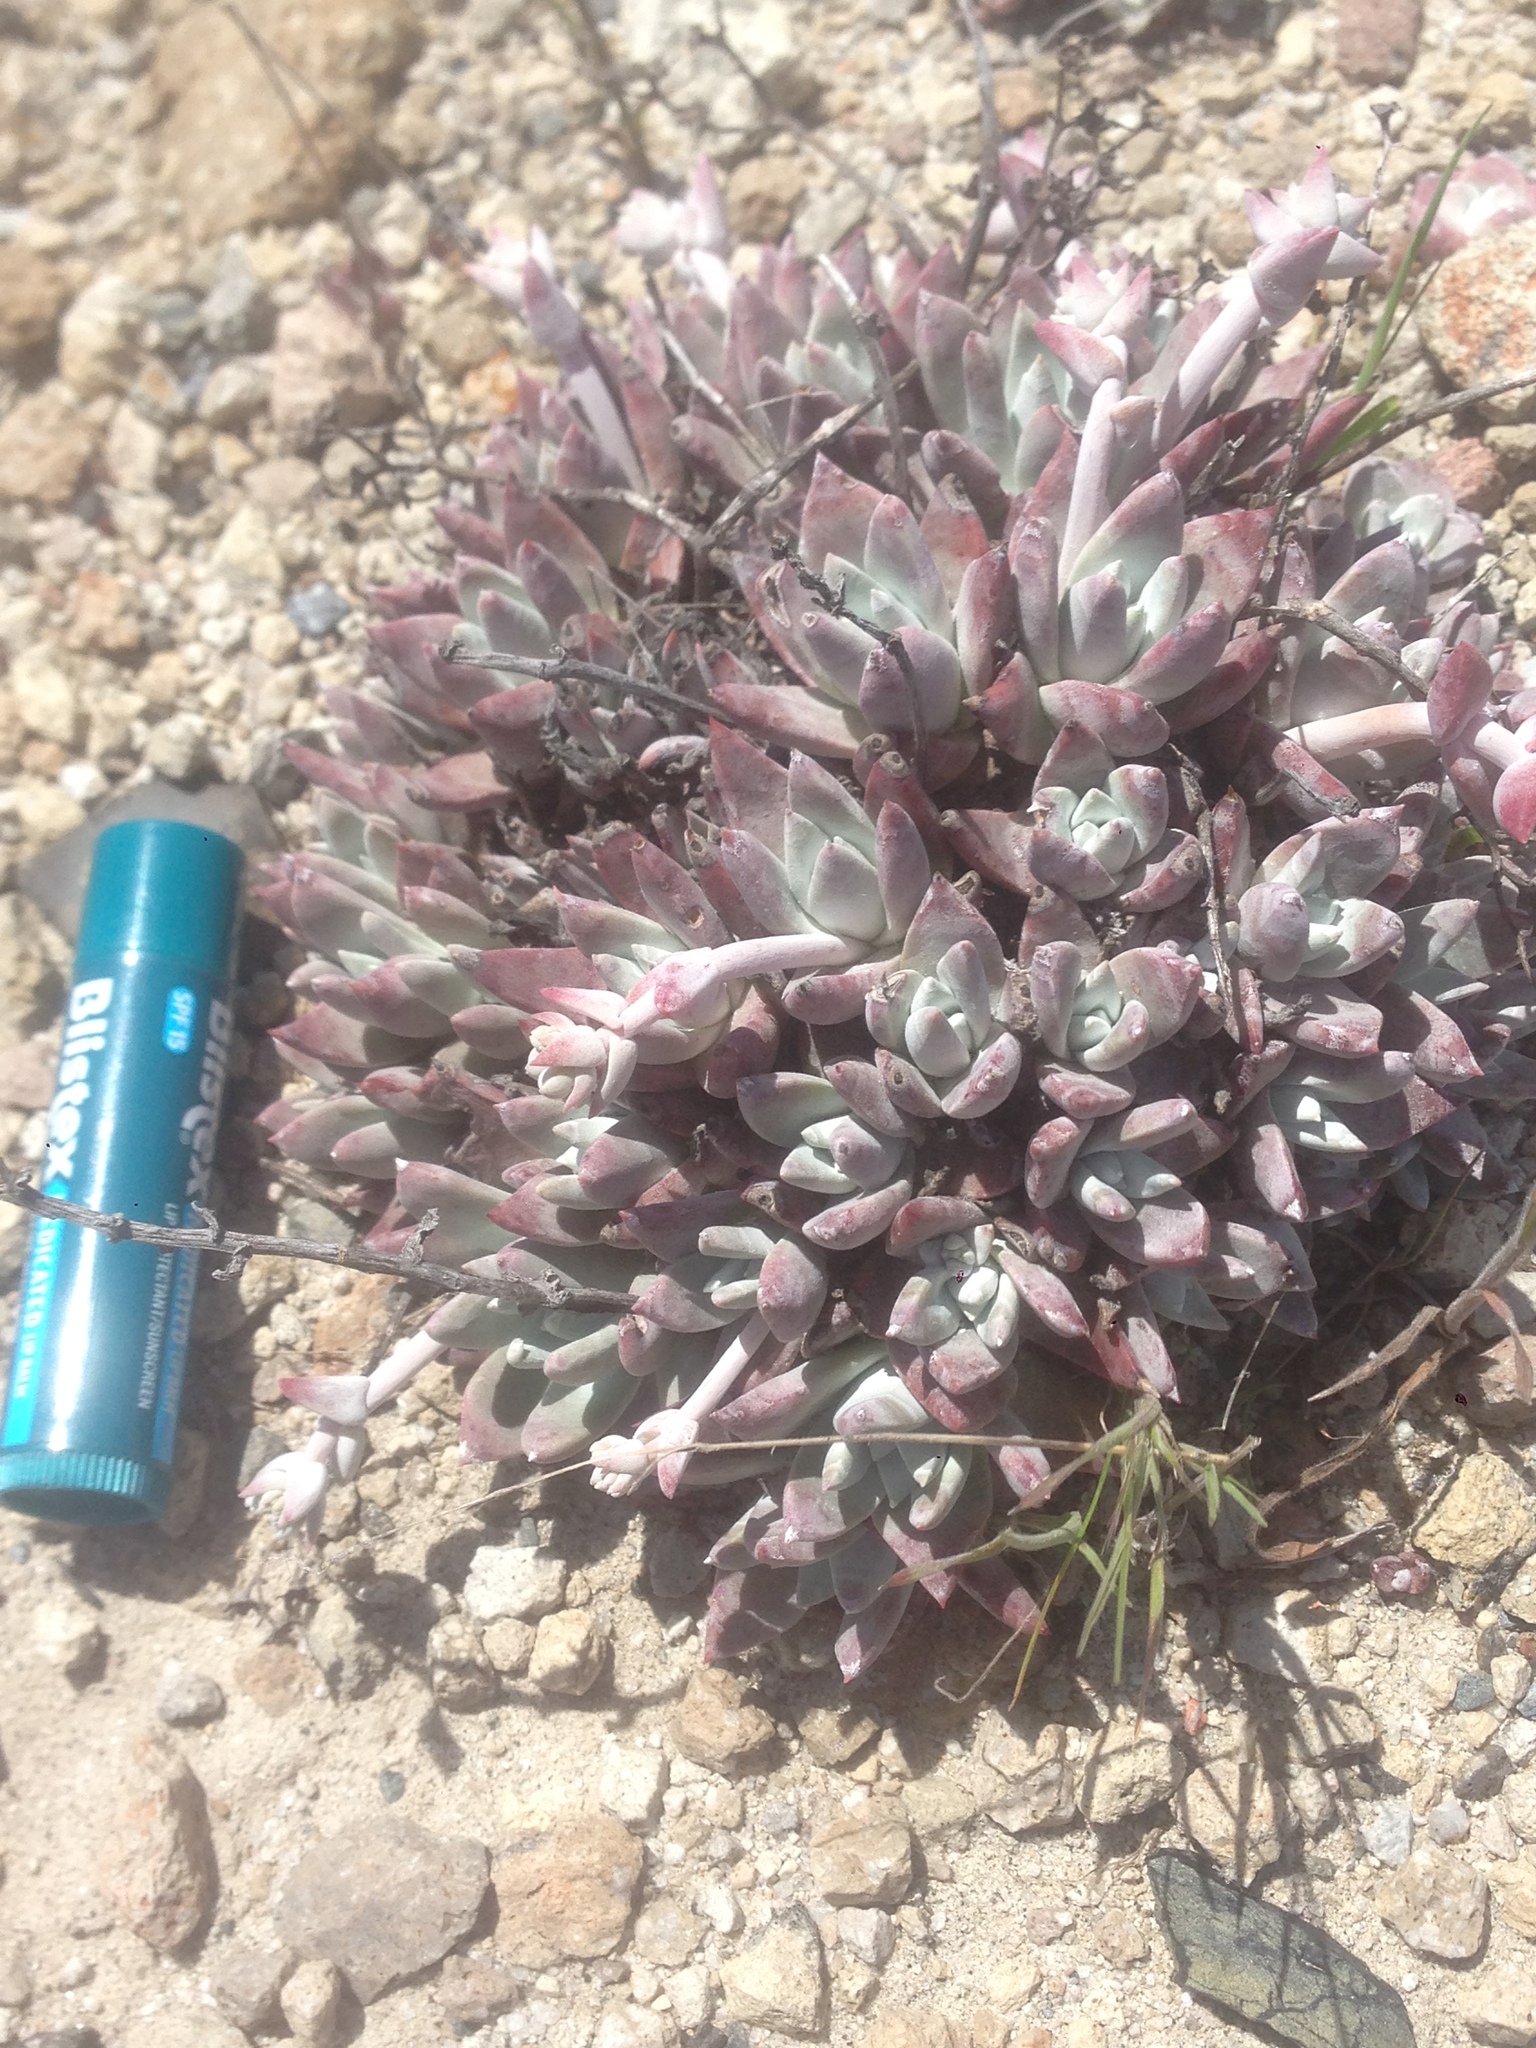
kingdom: Plantae
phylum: Tracheophyta
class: Magnoliopsida
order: Saxifragales
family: Crassulaceae
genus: Dudleya
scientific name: Dudleya gnoma
